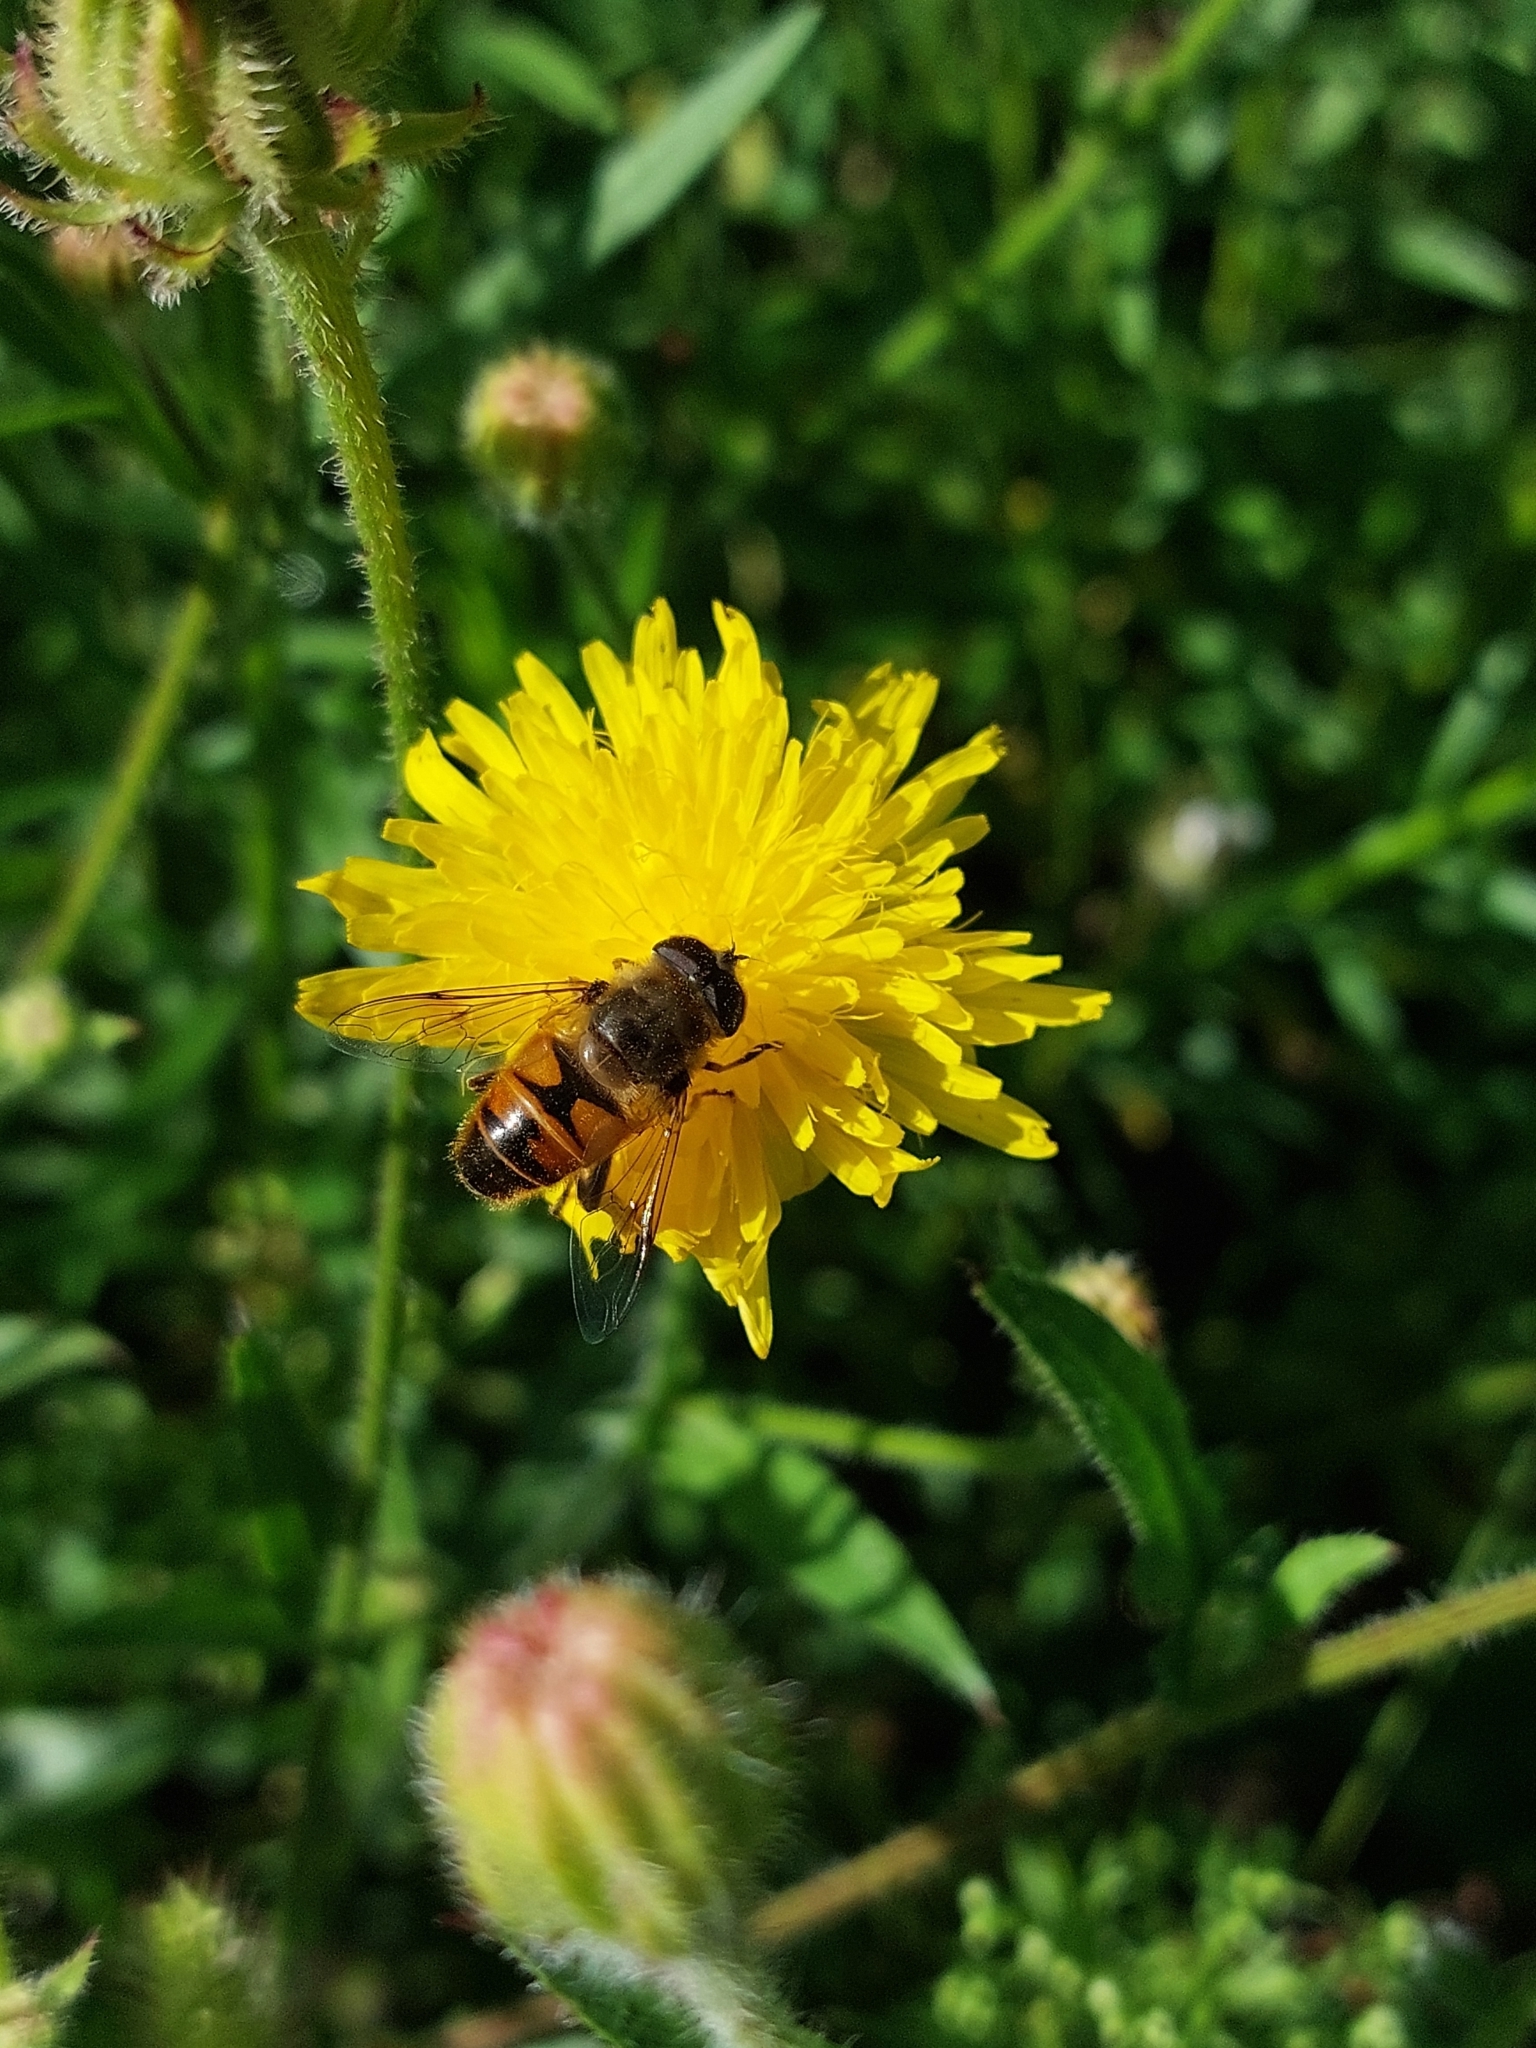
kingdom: Animalia
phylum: Arthropoda
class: Insecta
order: Diptera
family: Syrphidae
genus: Eristalis
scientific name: Eristalis tenax
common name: Drone fly
